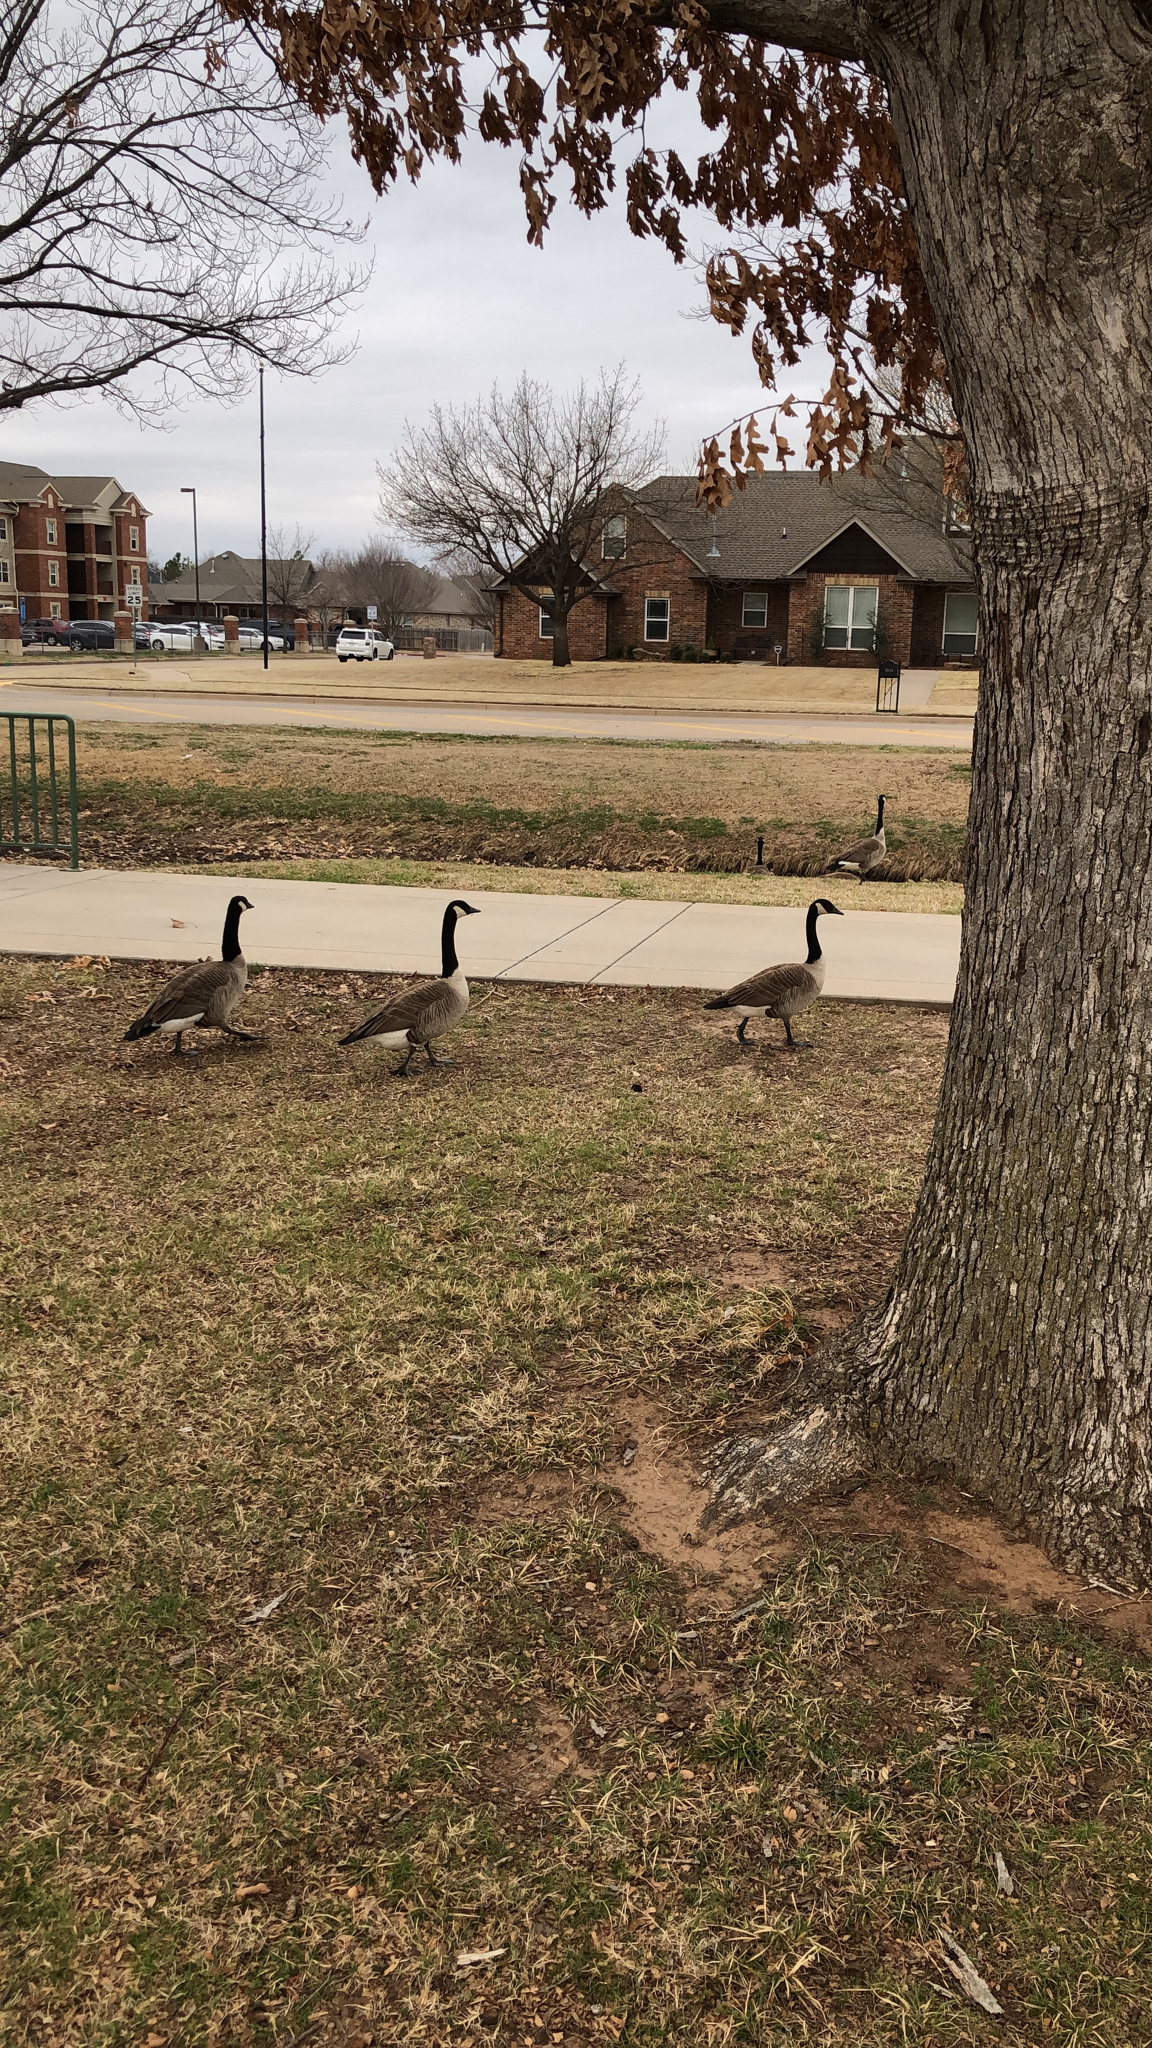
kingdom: Animalia
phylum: Chordata
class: Aves
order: Anseriformes
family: Anatidae
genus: Branta
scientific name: Branta canadensis
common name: Canada goose
